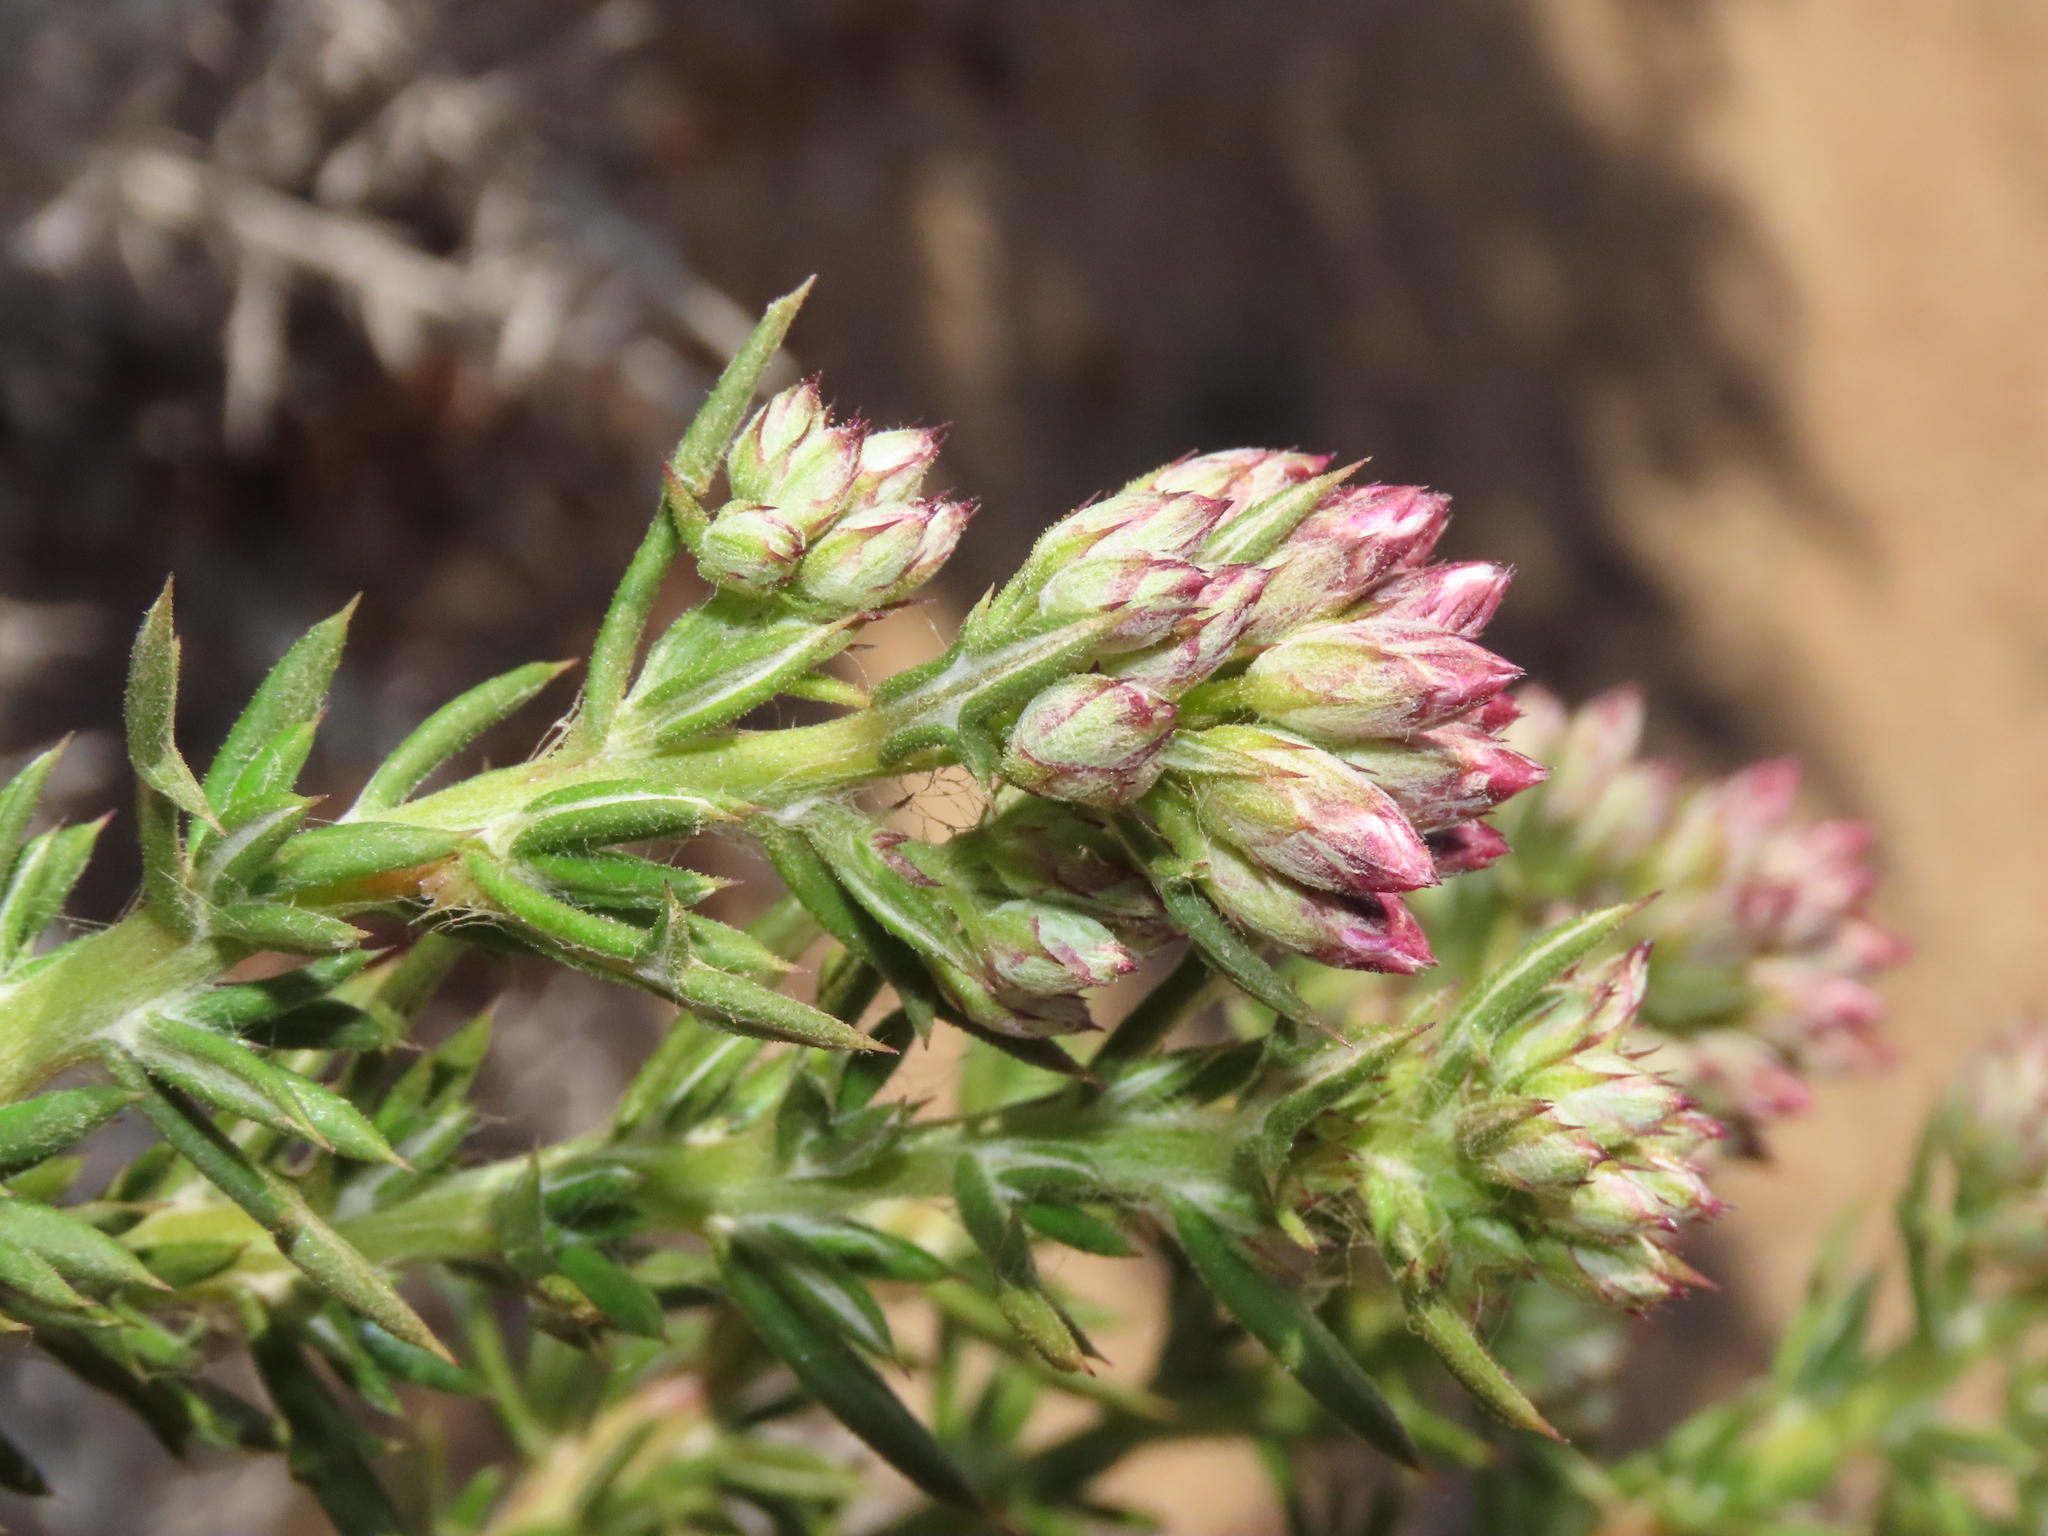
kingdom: Plantae
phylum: Tracheophyta
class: Magnoliopsida
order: Asterales
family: Asteraceae
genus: Oxyphyllum
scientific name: Oxyphyllum ulicinum
